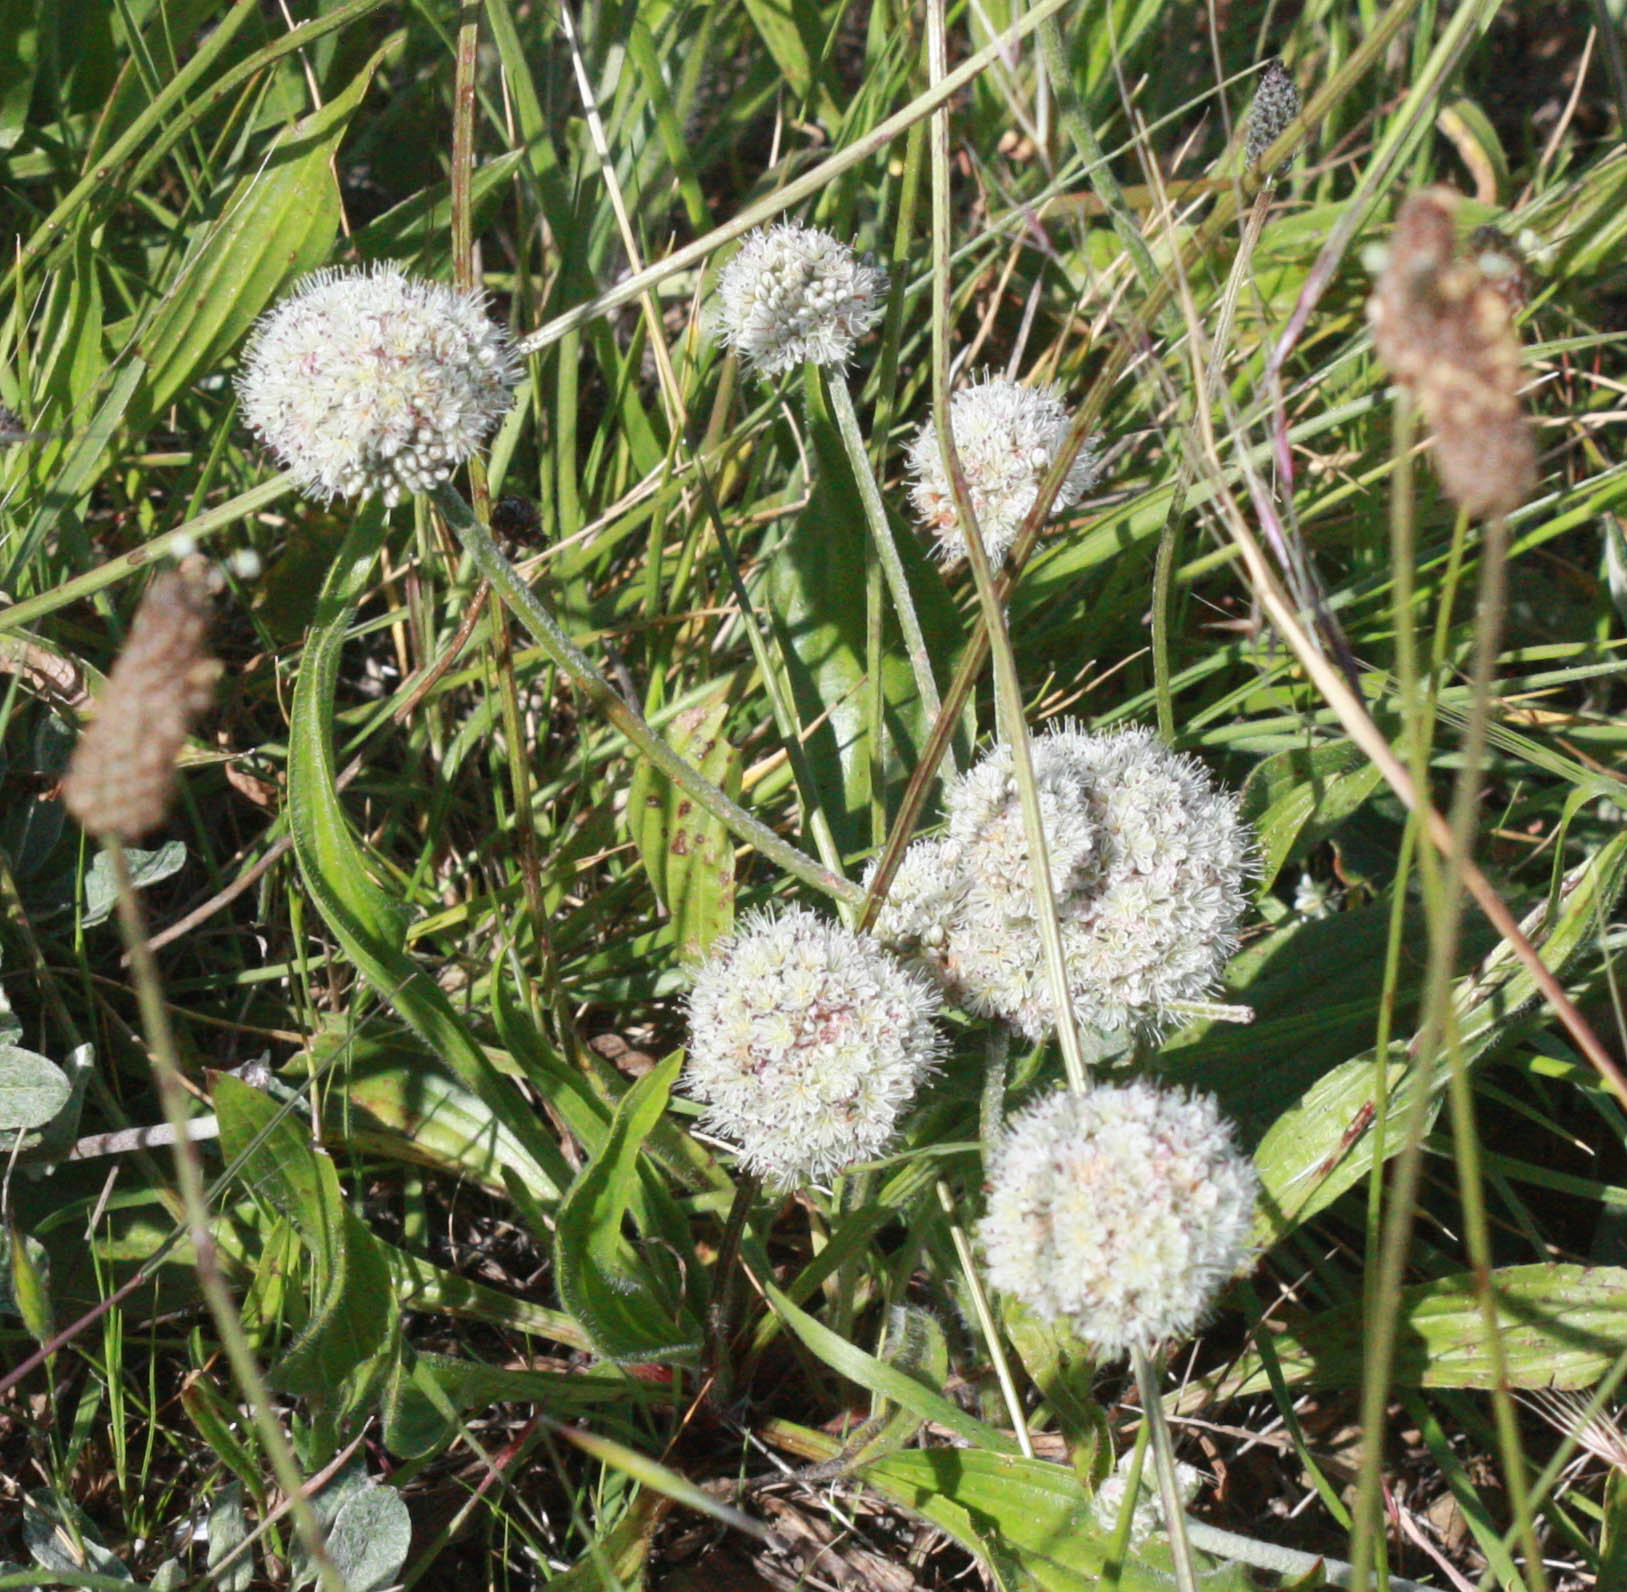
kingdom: Plantae
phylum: Tracheophyta
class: Magnoliopsida
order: Caryophyllales
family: Polygonaceae
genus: Eriogonum
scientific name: Eriogonum latifolium
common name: Seaside wild buckwheat
